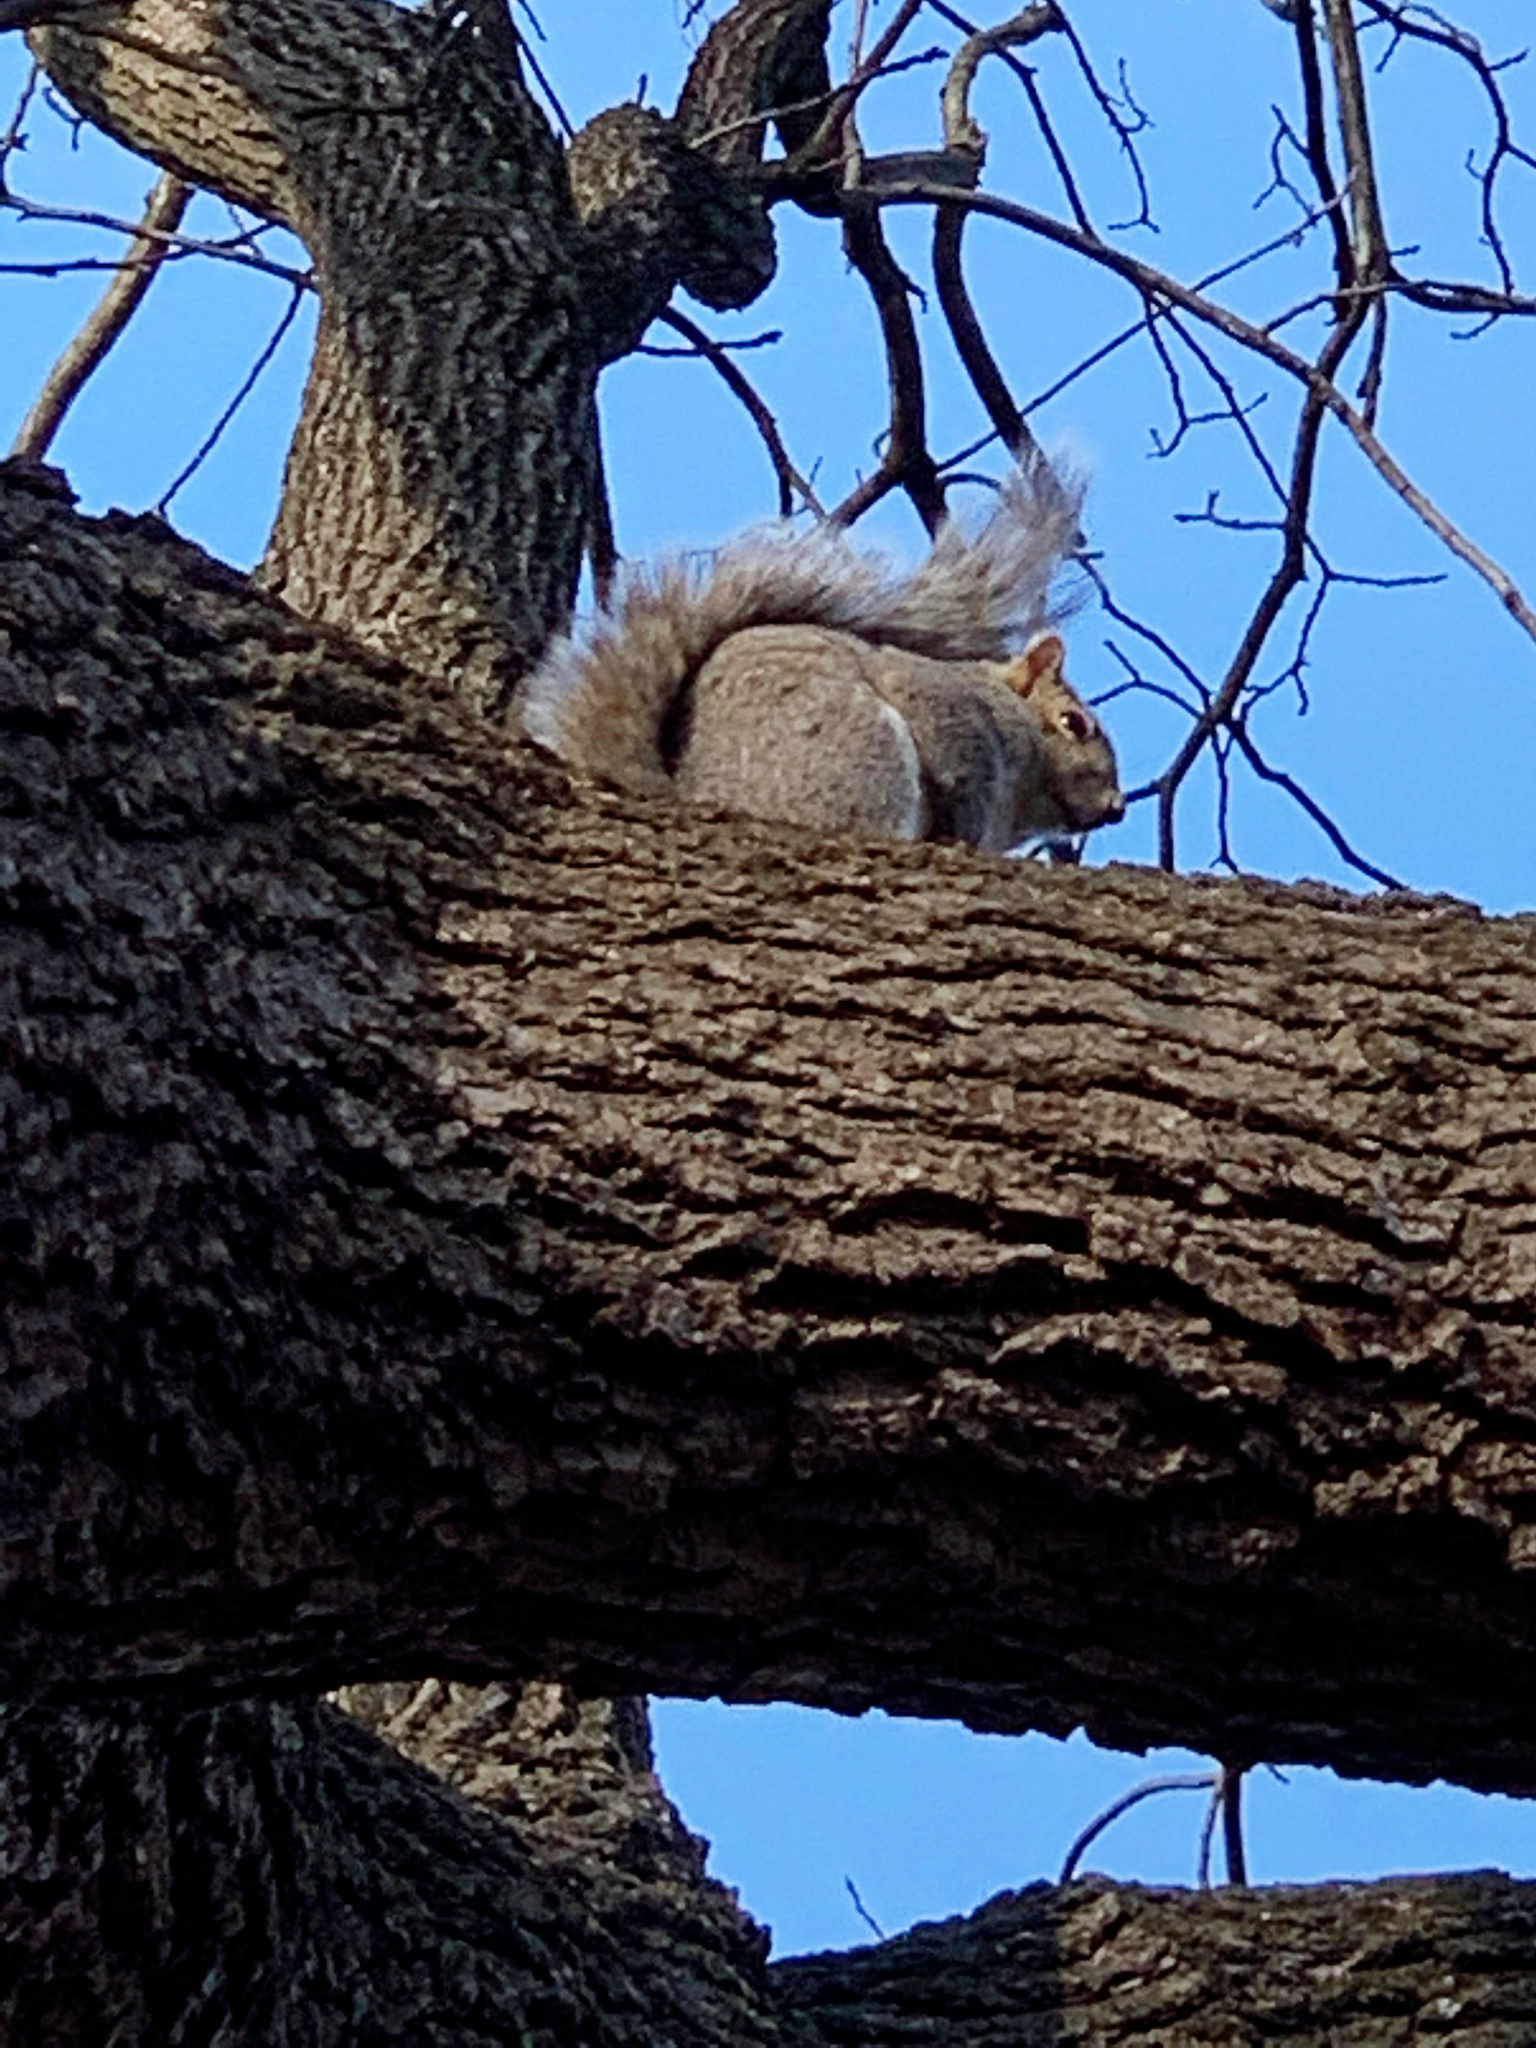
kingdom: Animalia
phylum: Chordata
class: Mammalia
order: Rodentia
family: Sciuridae
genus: Sciurus
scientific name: Sciurus carolinensis
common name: Eastern gray squirrel
